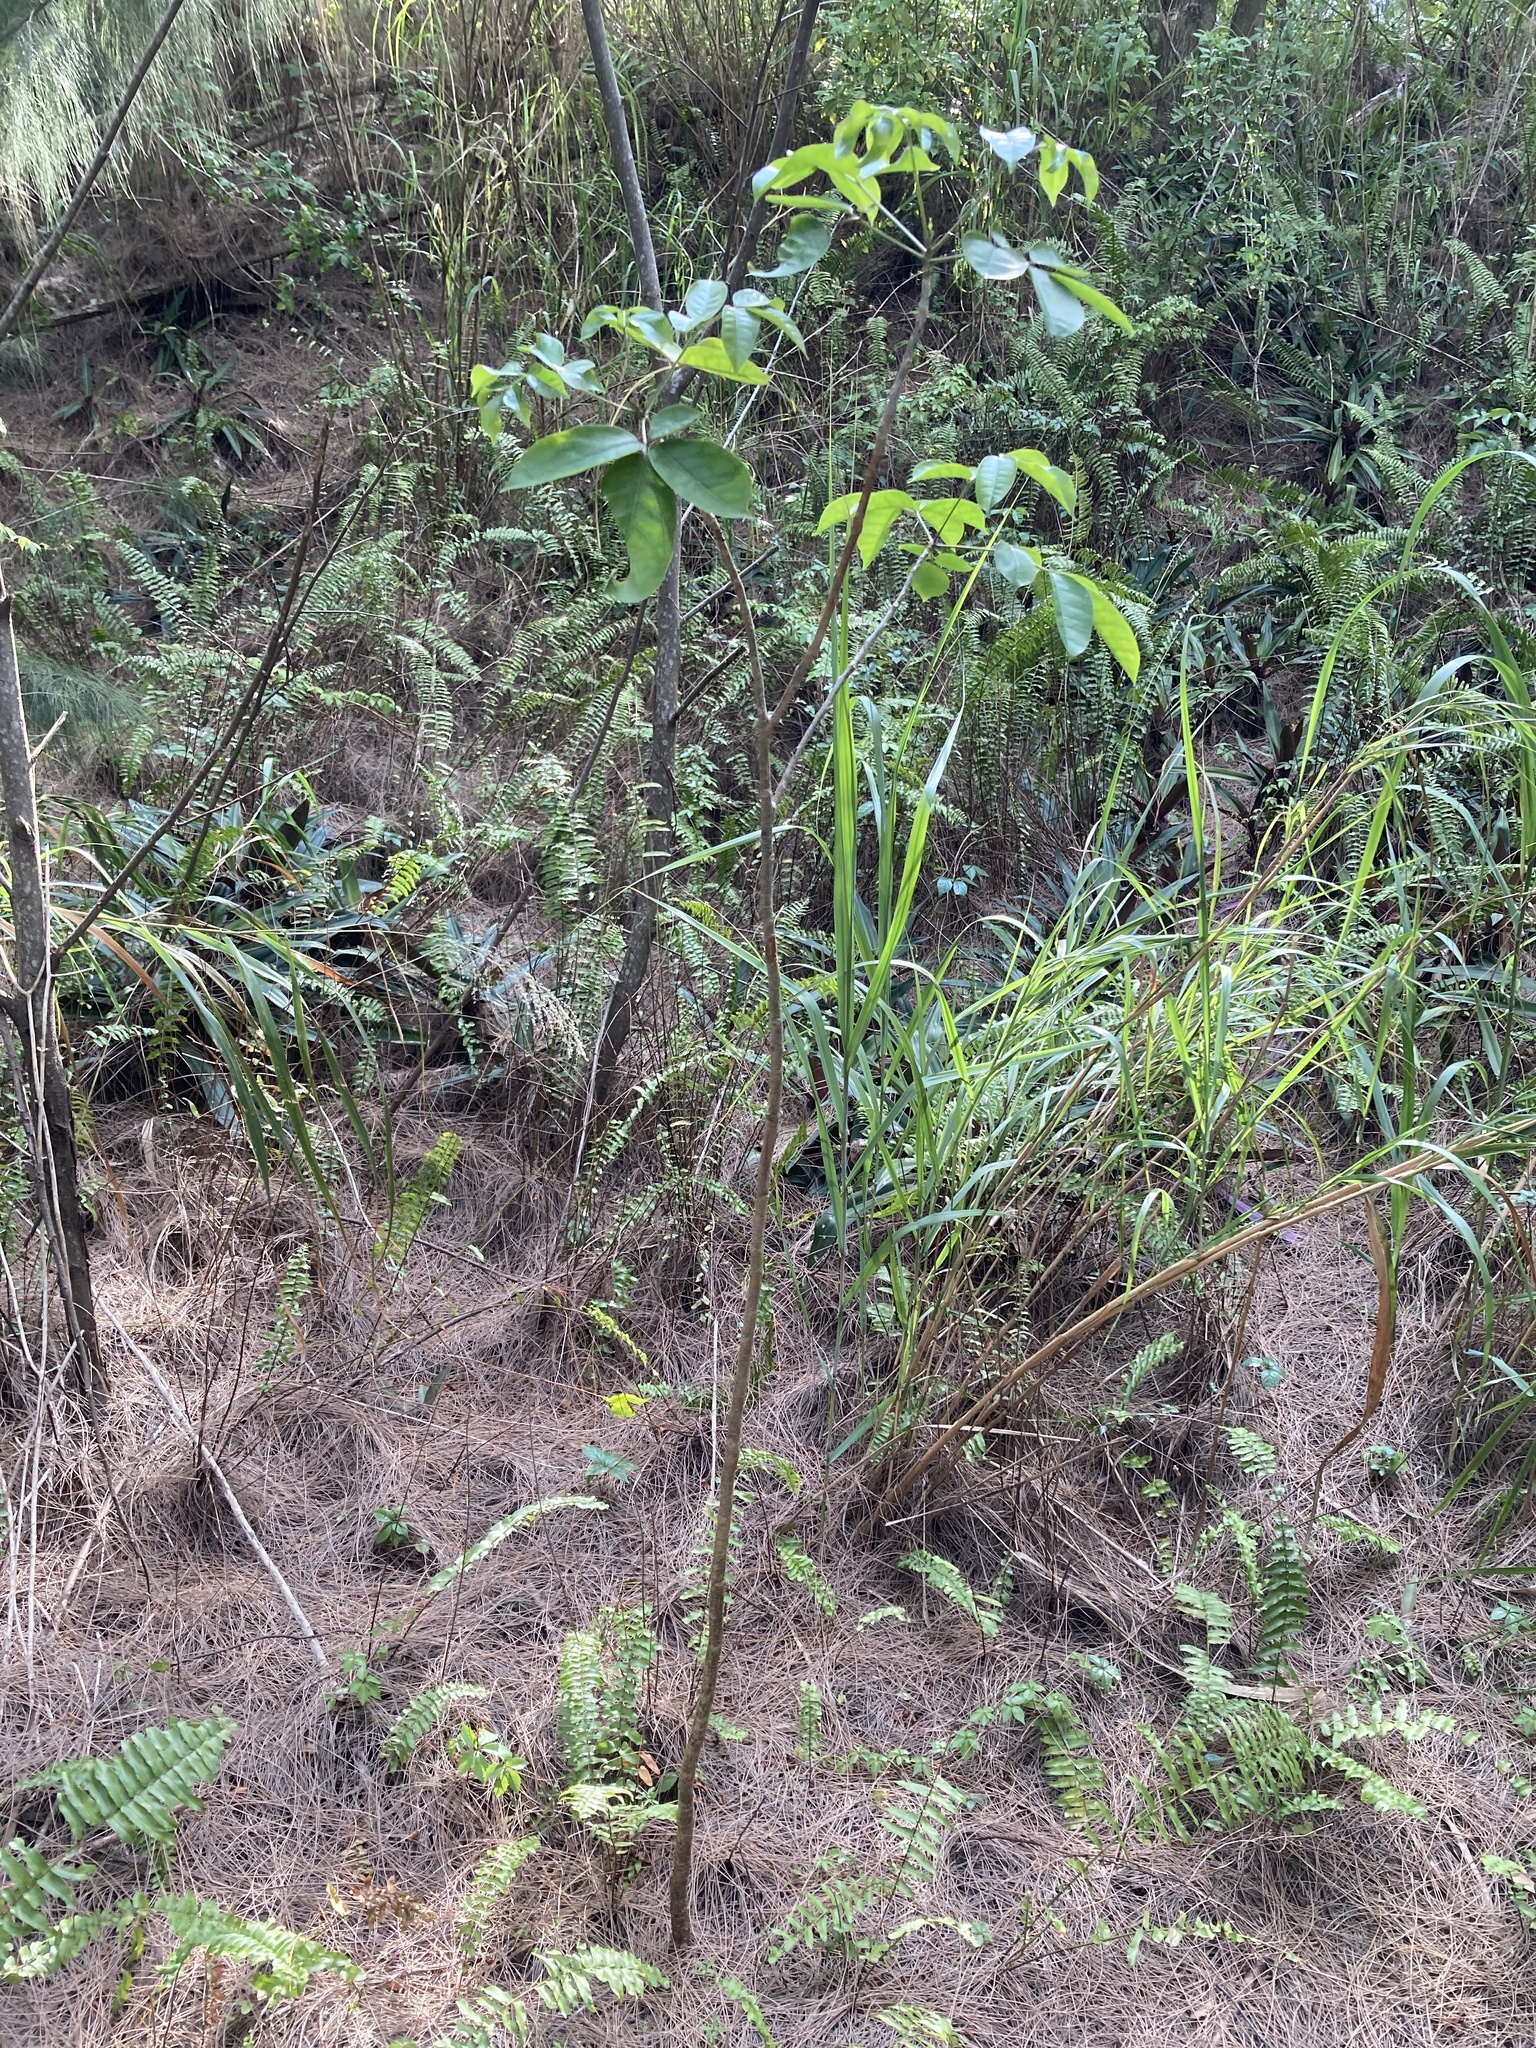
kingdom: Plantae
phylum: Tracheophyta
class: Magnoliopsida
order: Sapindales
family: Burseraceae
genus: Bursera
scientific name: Bursera simaruba
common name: Turpentine tree
